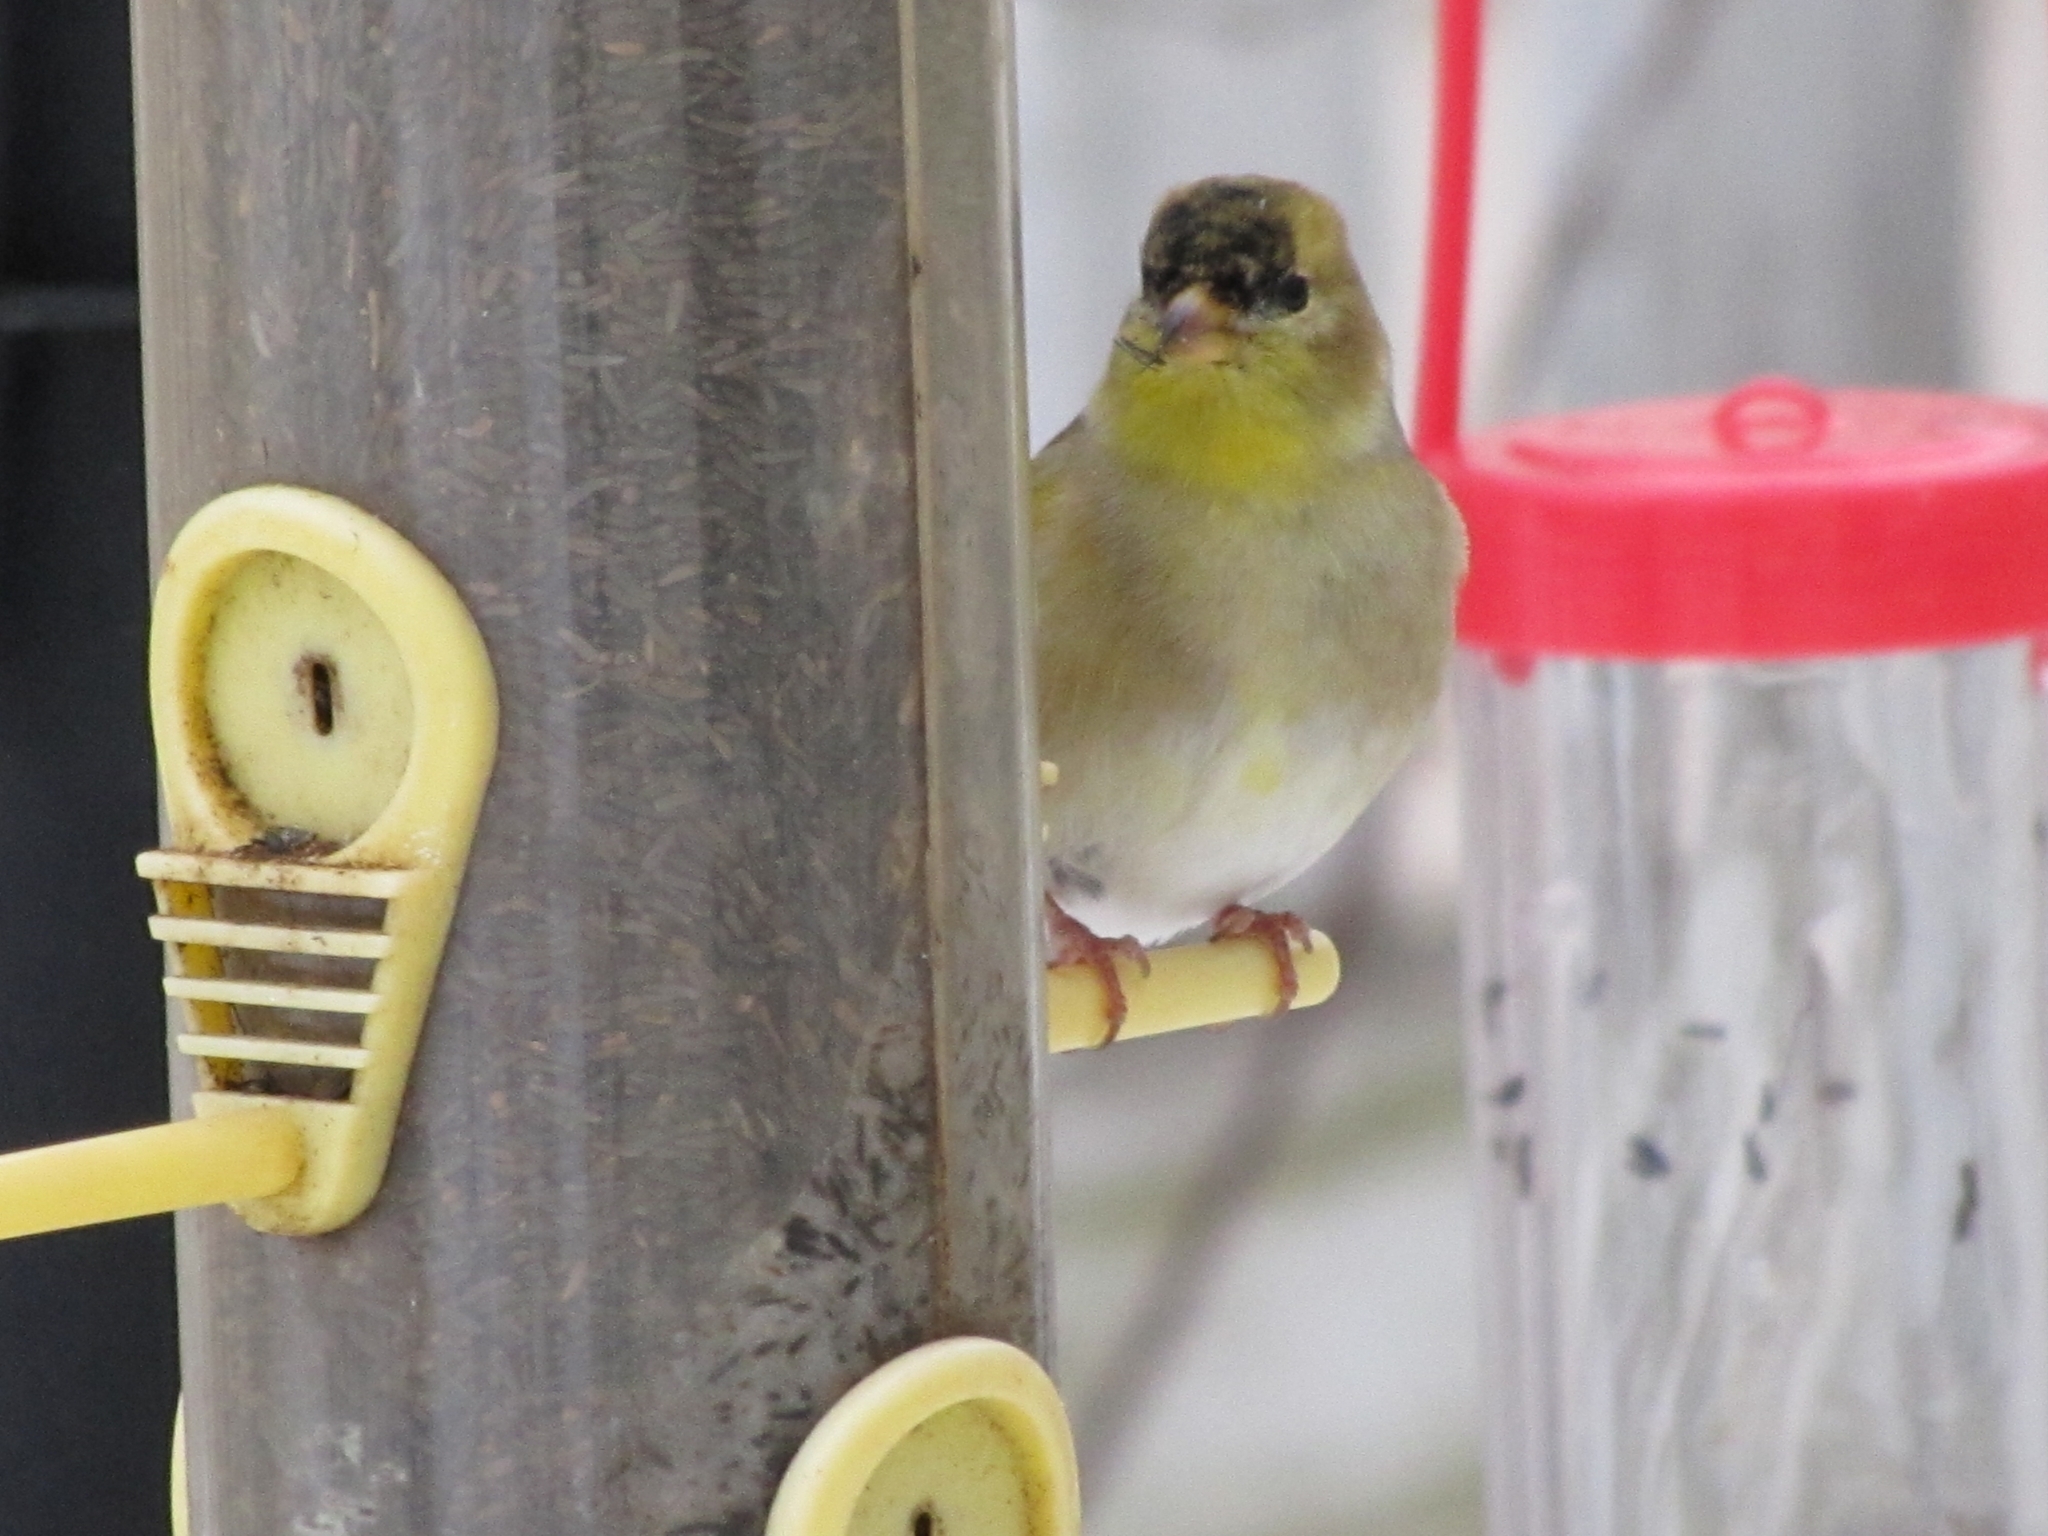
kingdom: Animalia
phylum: Chordata
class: Aves
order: Passeriformes
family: Fringillidae
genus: Spinus
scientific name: Spinus tristis
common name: American goldfinch
